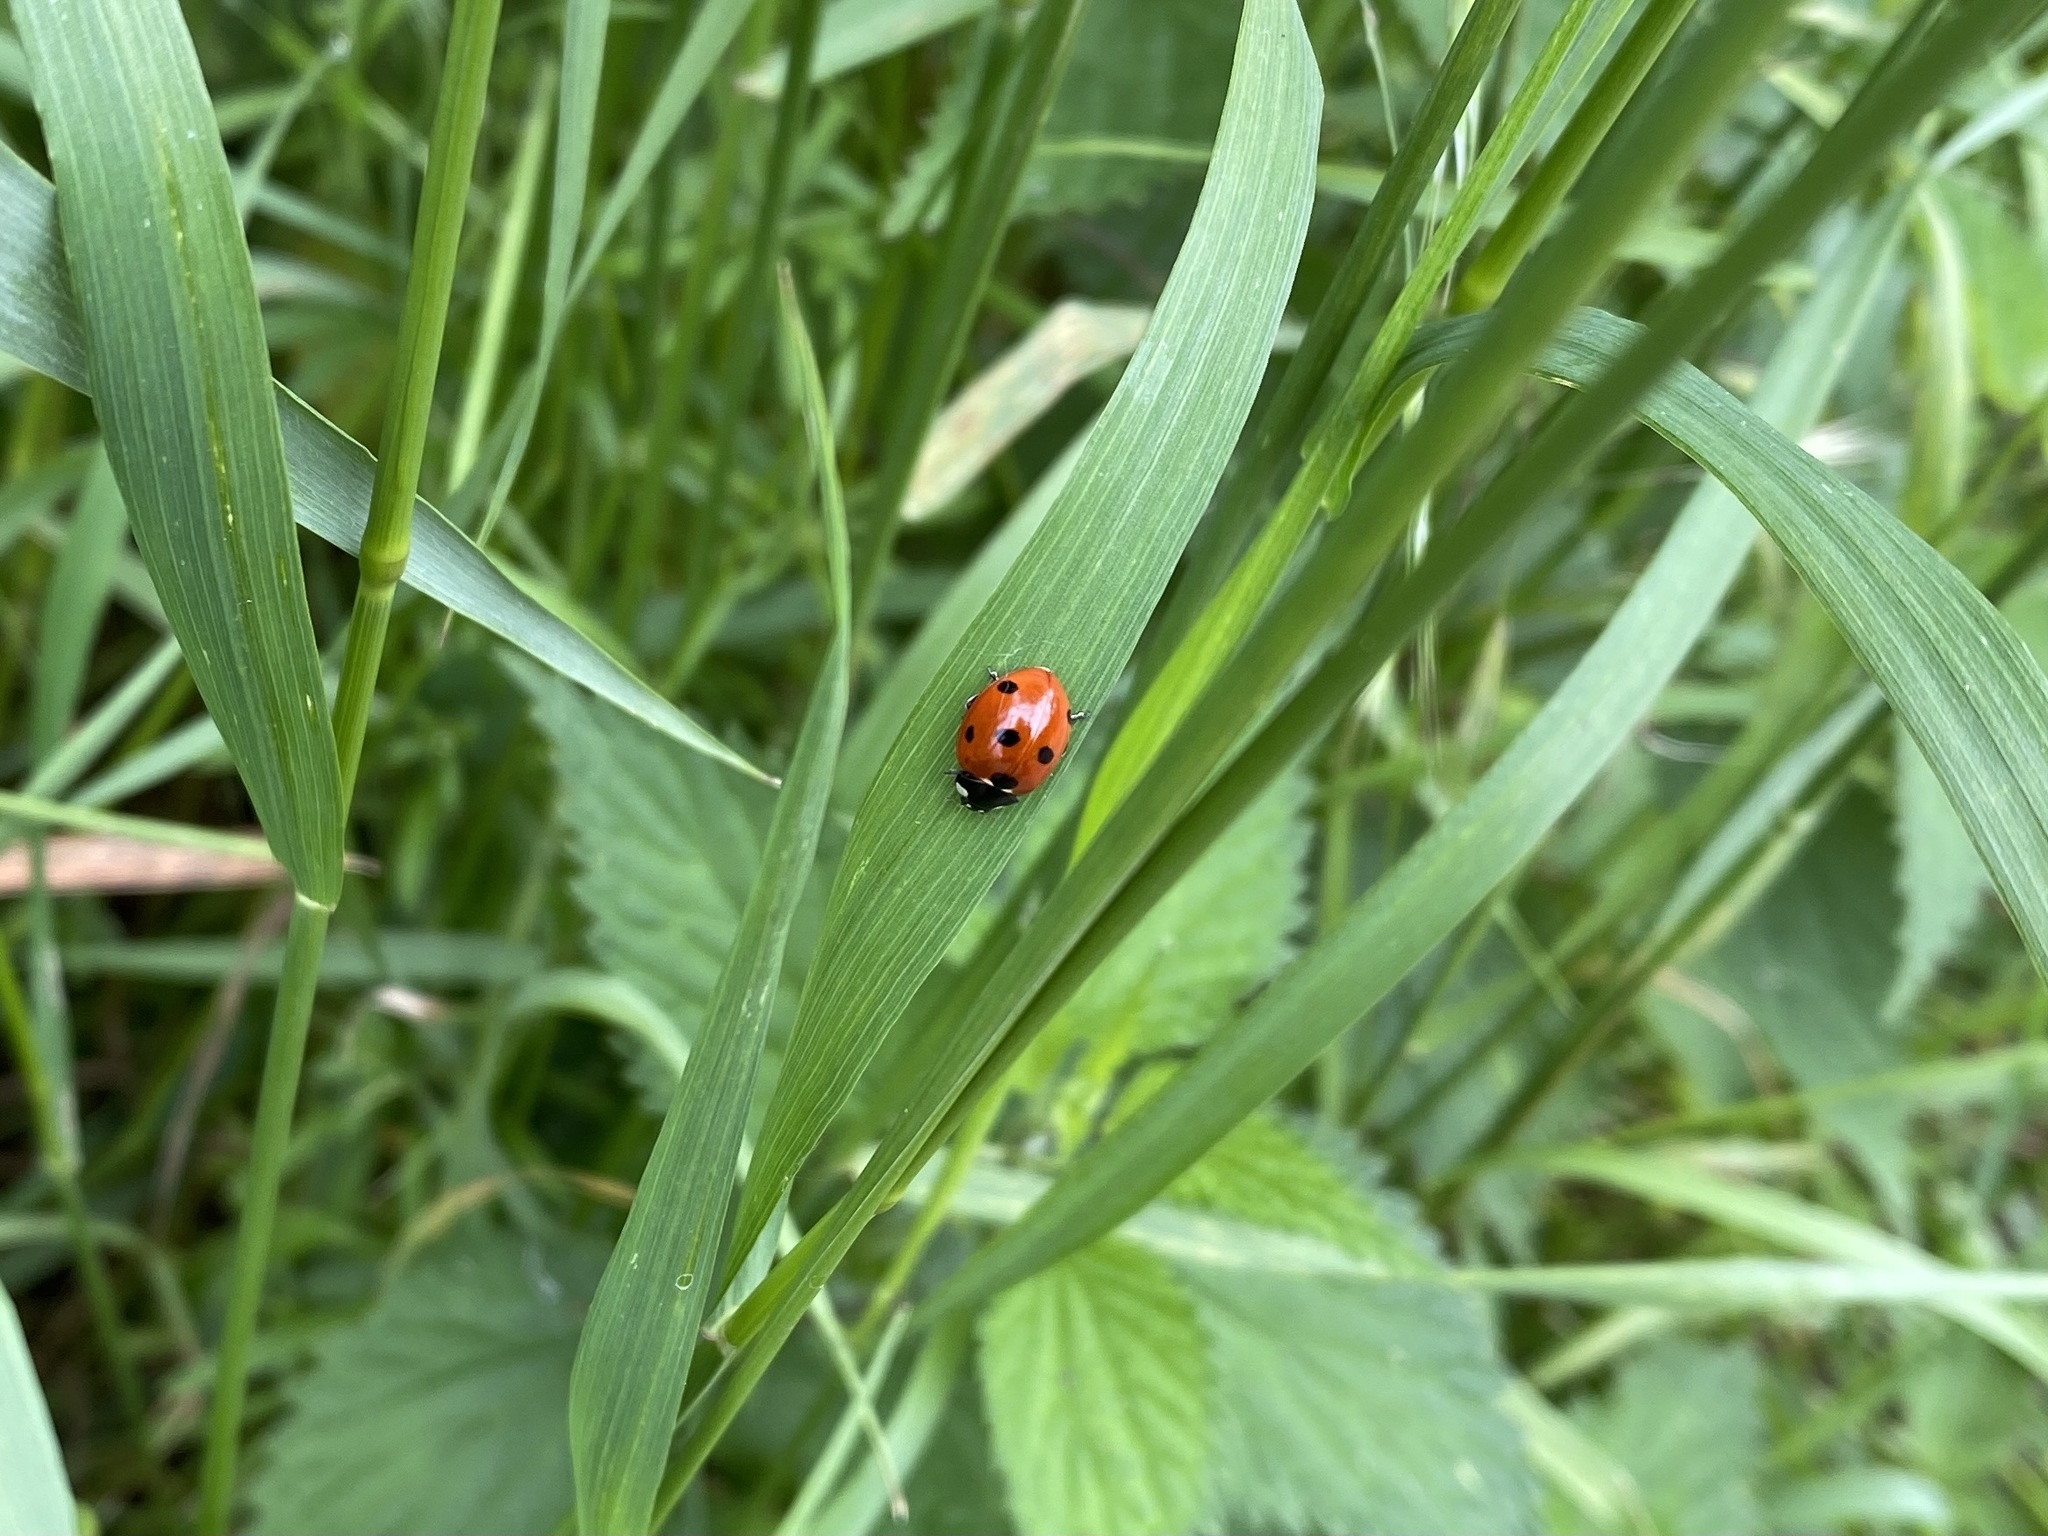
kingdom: Animalia
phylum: Arthropoda
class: Insecta
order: Coleoptera
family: Coccinellidae
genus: Coccinella
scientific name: Coccinella septempunctata
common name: Sevenspotted lady beetle
